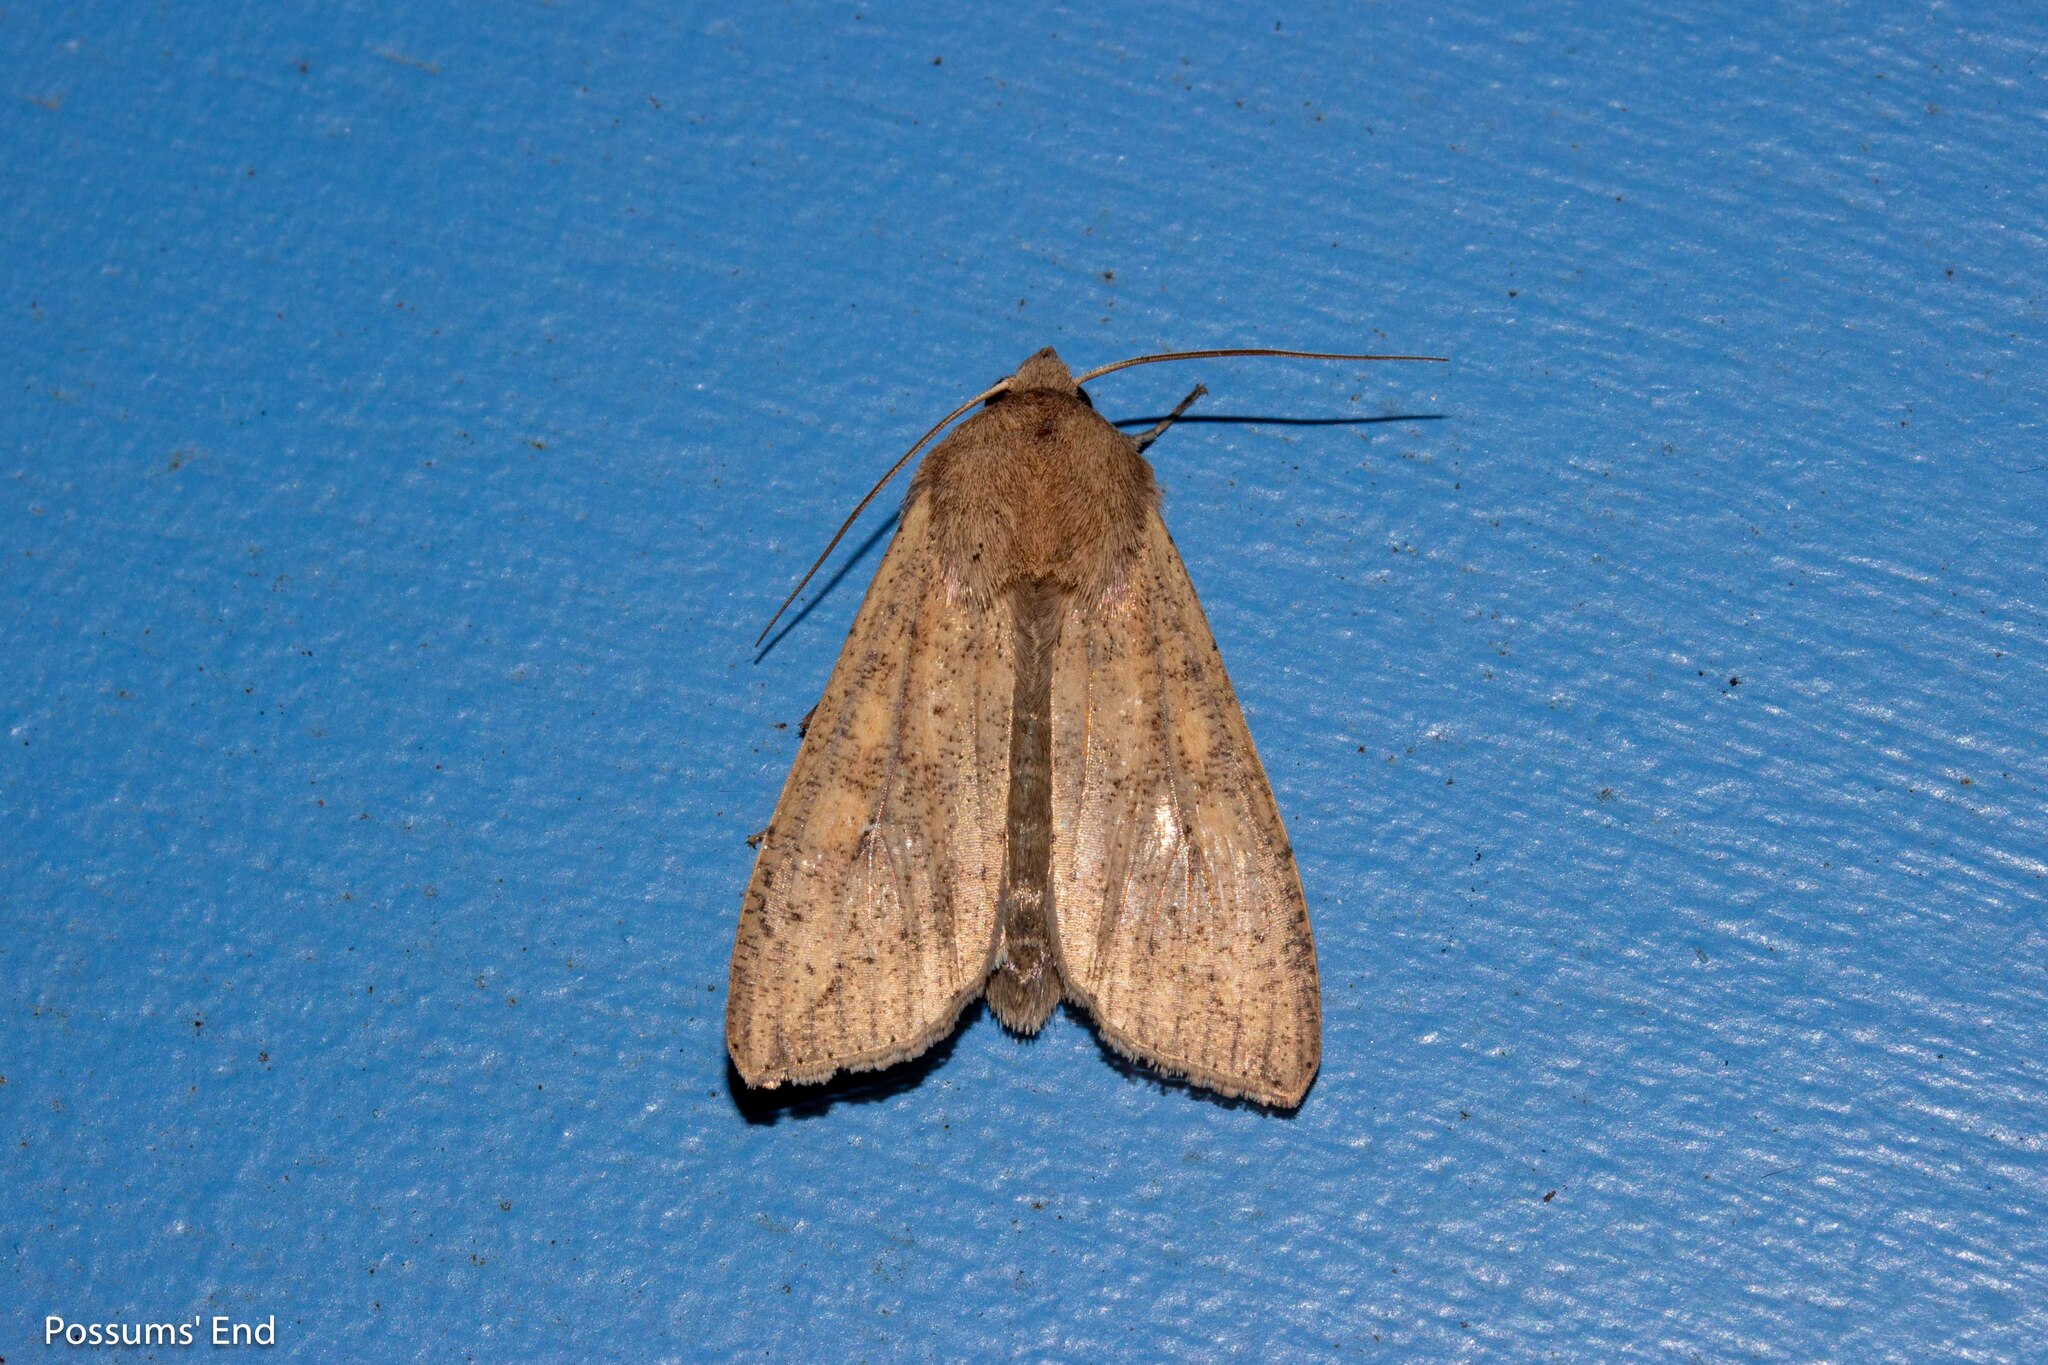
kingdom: Animalia
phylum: Arthropoda
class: Insecta
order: Lepidoptera
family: Noctuidae
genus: Mythimna
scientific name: Mythimna separata
